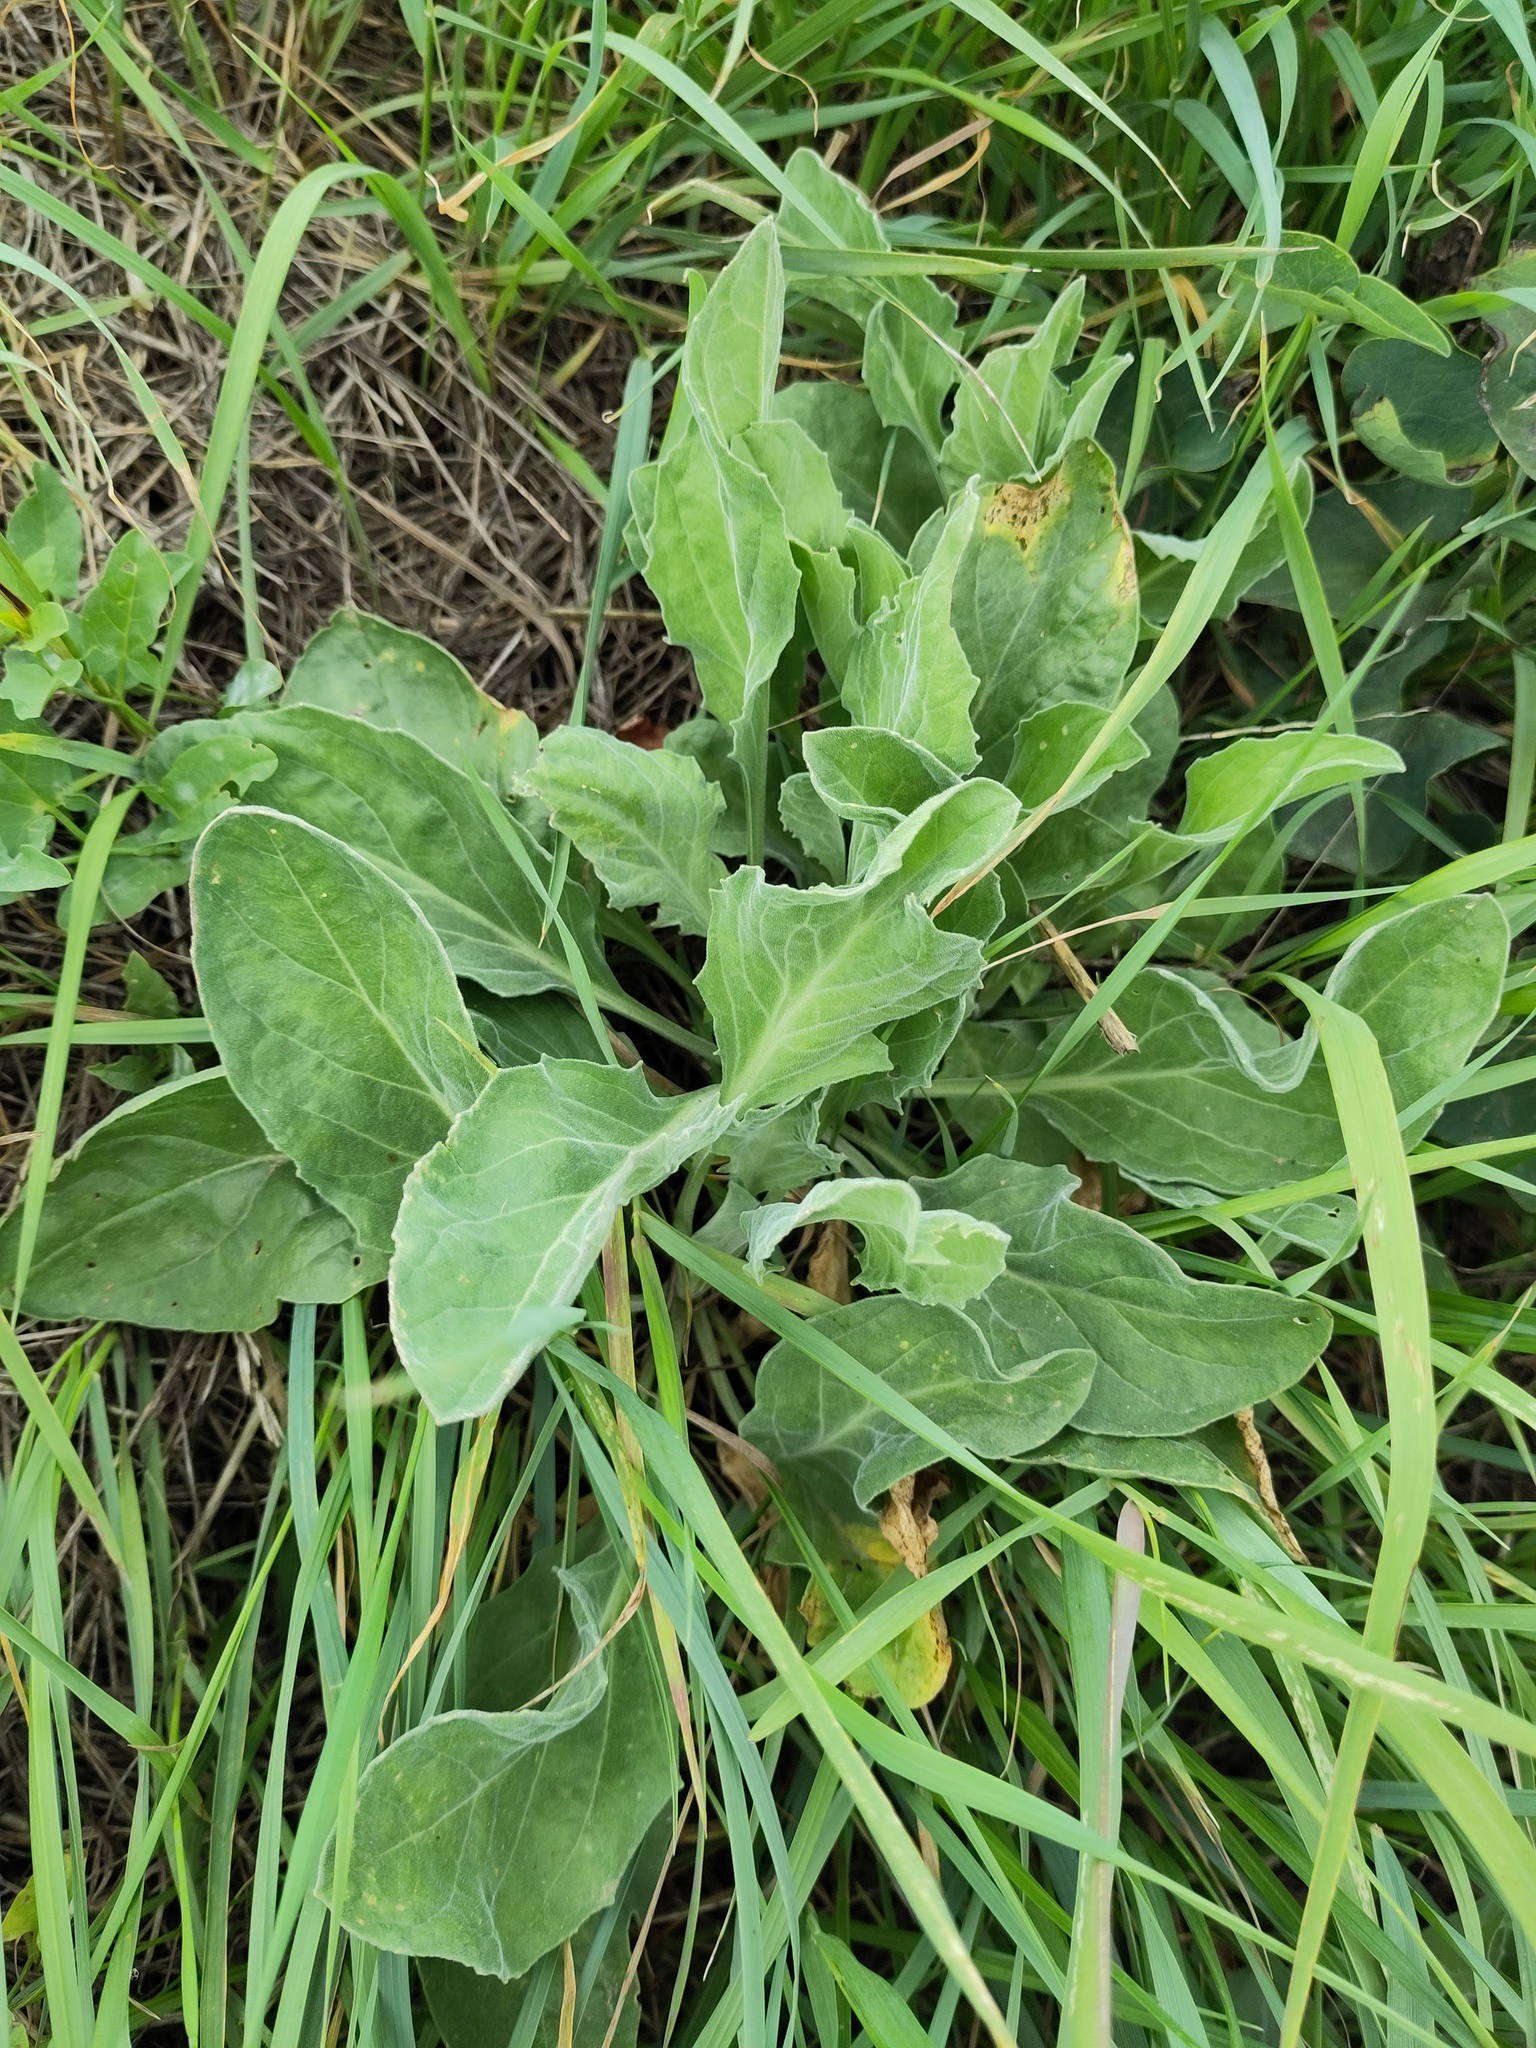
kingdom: Plantae
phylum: Tracheophyta
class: Magnoliopsida
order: Brassicales
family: Brassicaceae
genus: Lepidium
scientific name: Lepidium draba
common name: Hoary cress
